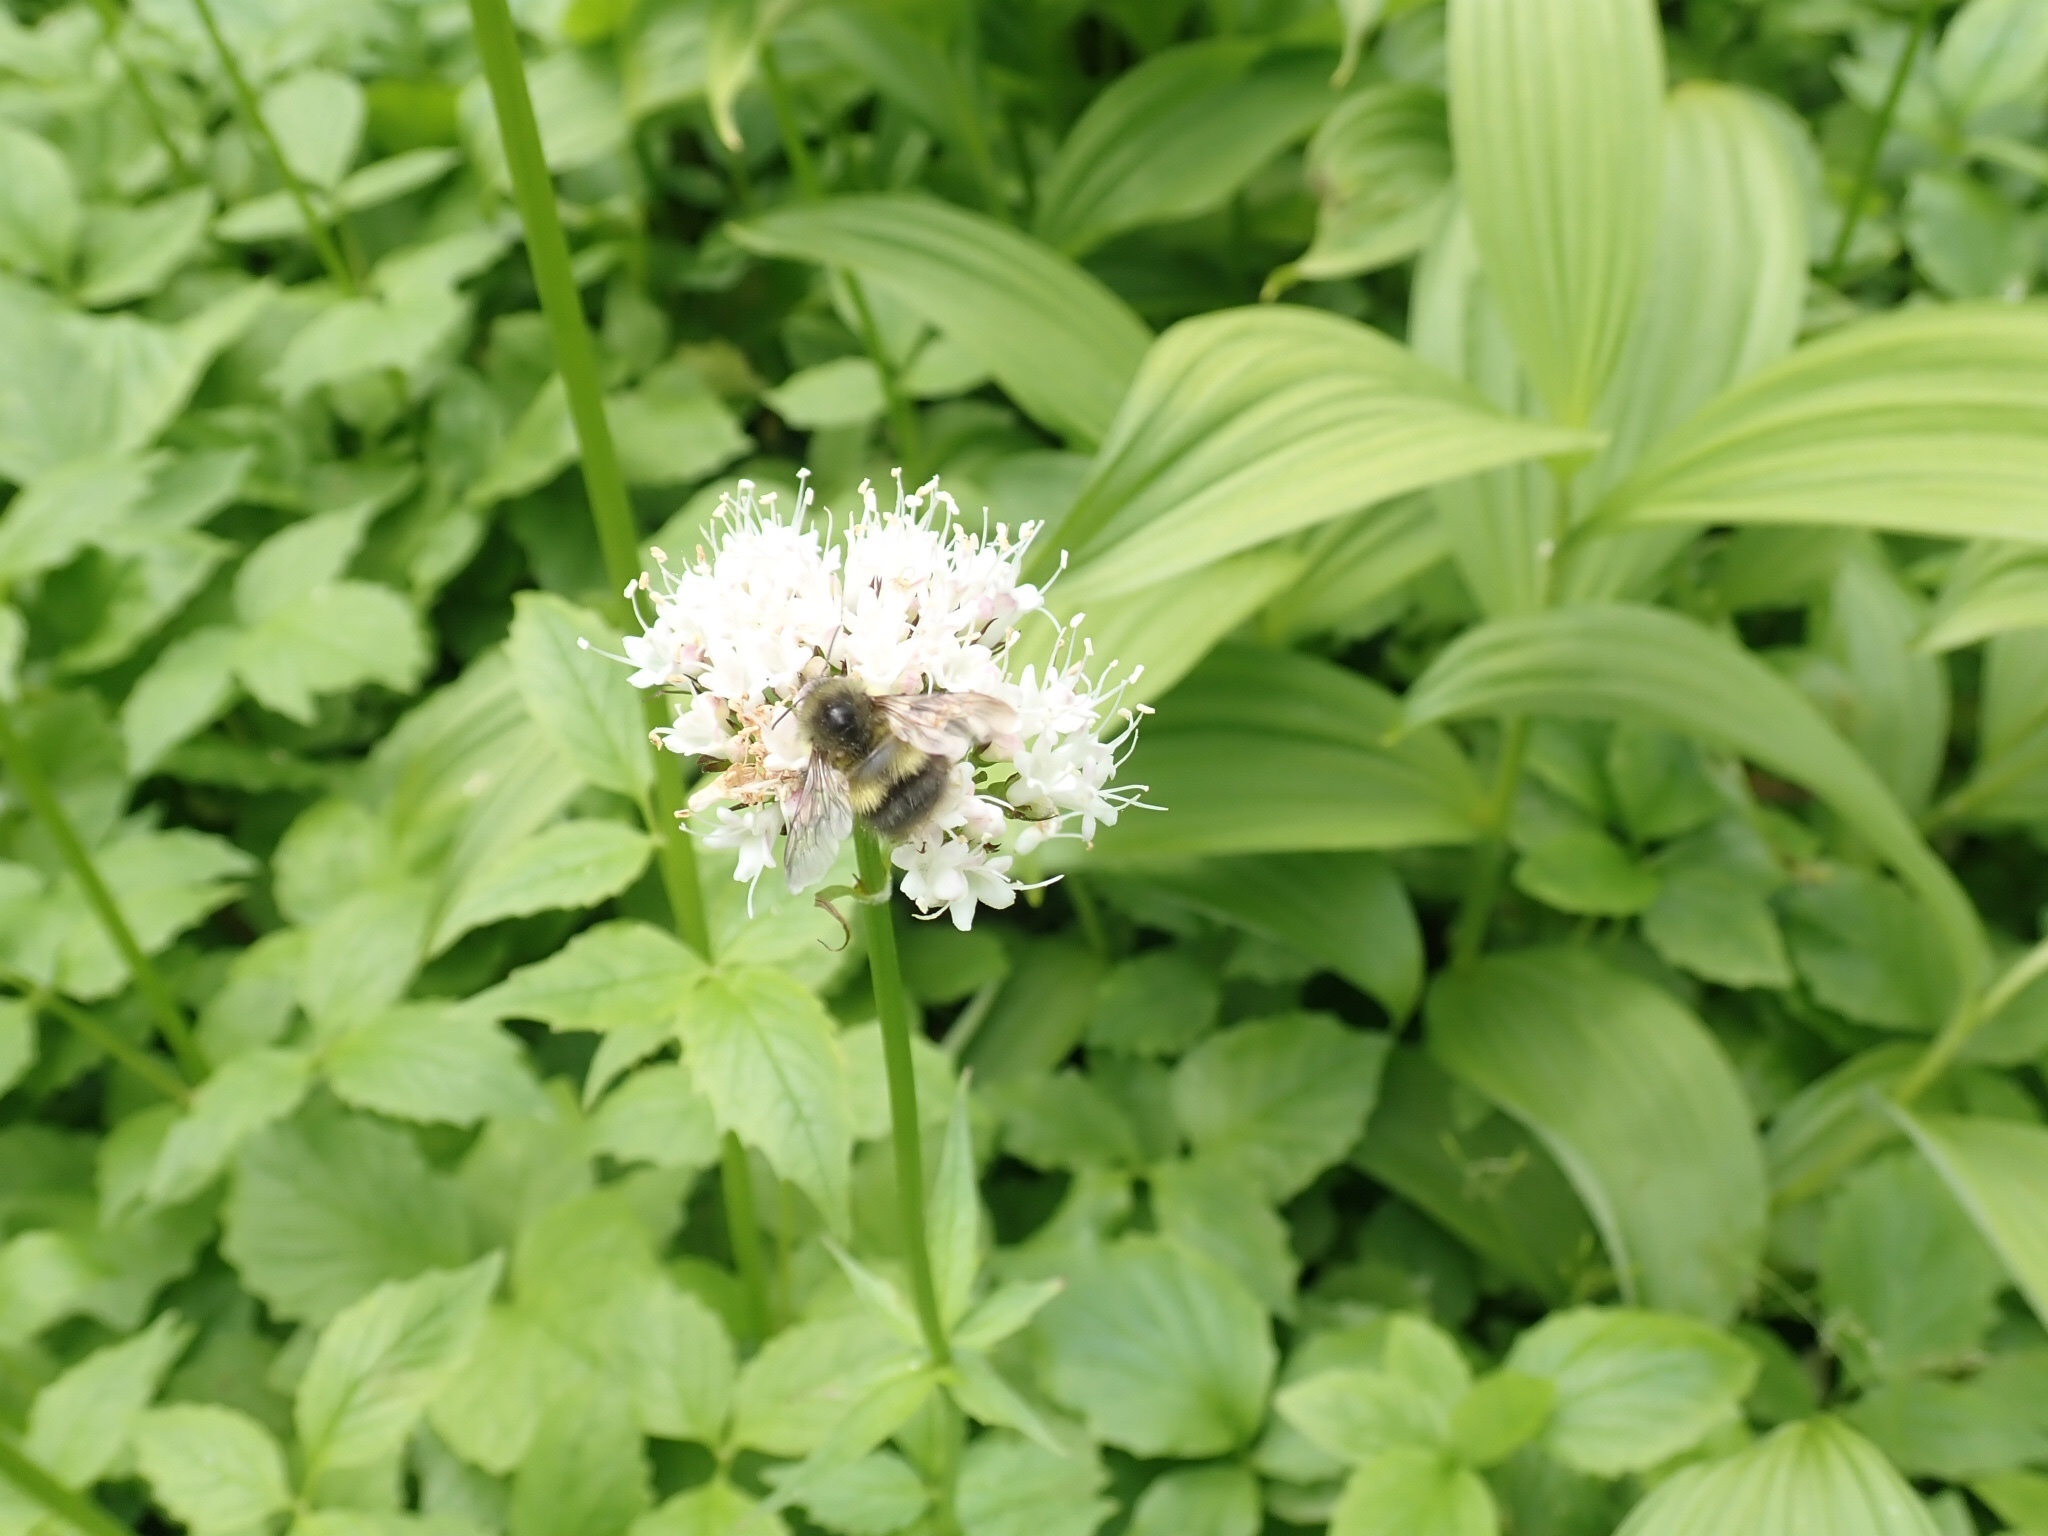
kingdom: Plantae
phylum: Tracheophyta
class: Magnoliopsida
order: Dipsacales
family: Caprifoliaceae
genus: Valeriana
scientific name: Valeriana sitchensis
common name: Pacific valerian
